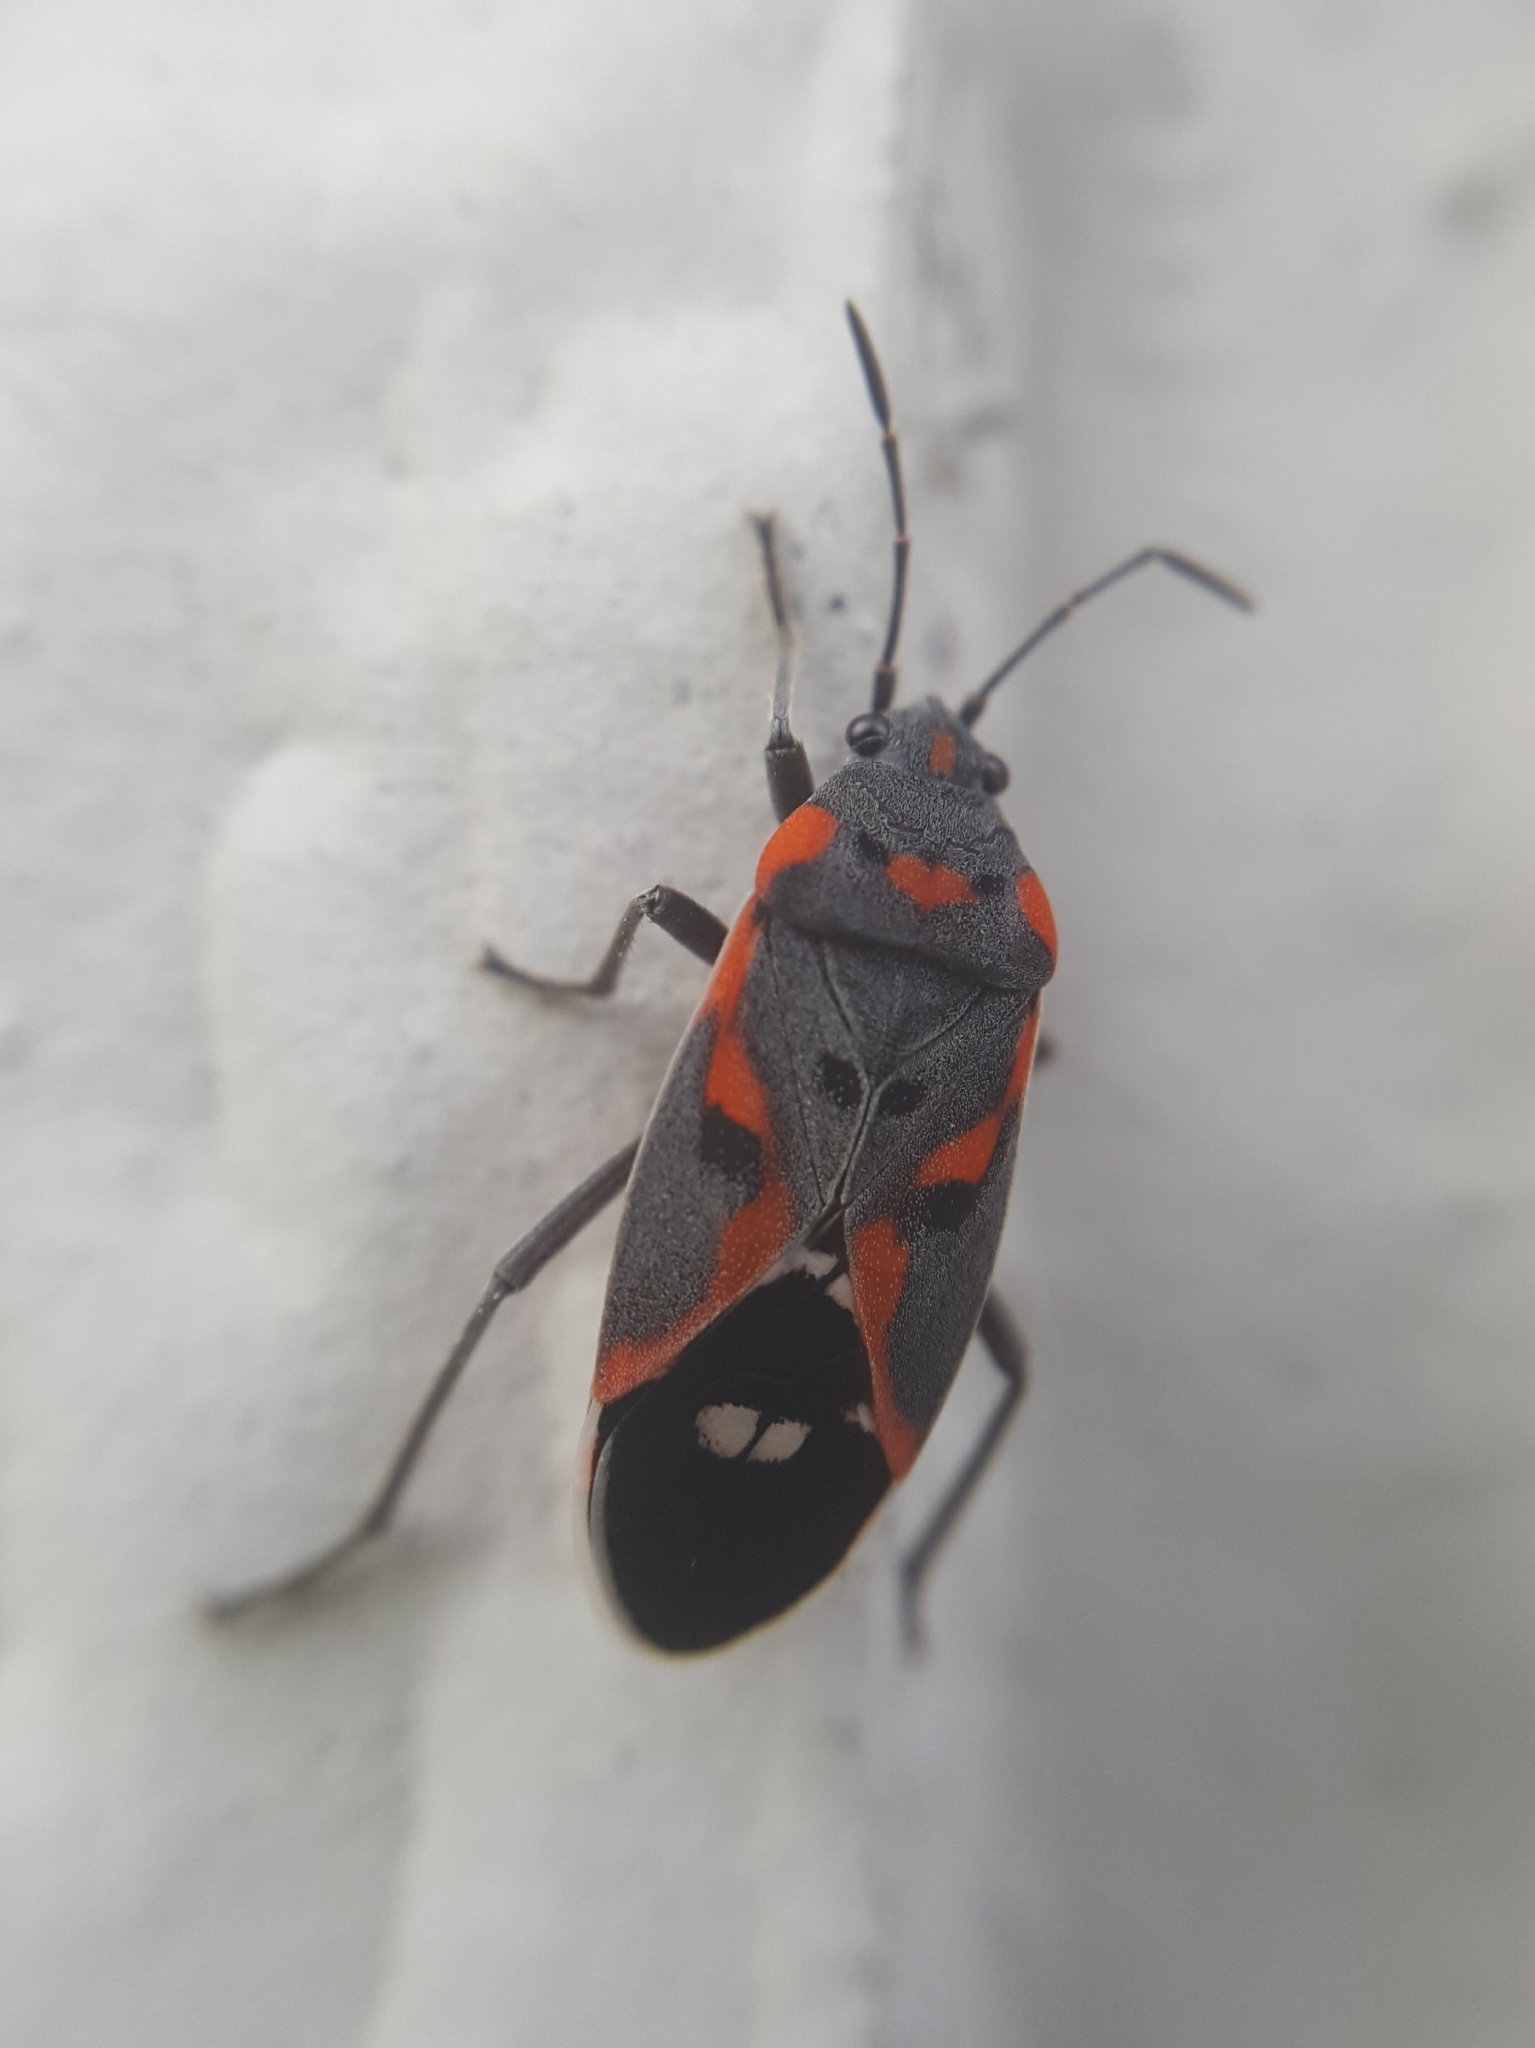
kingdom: Animalia
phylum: Arthropoda
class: Insecta
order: Hemiptera
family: Lygaeidae
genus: Lygaeus
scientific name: Lygaeus kalmii
